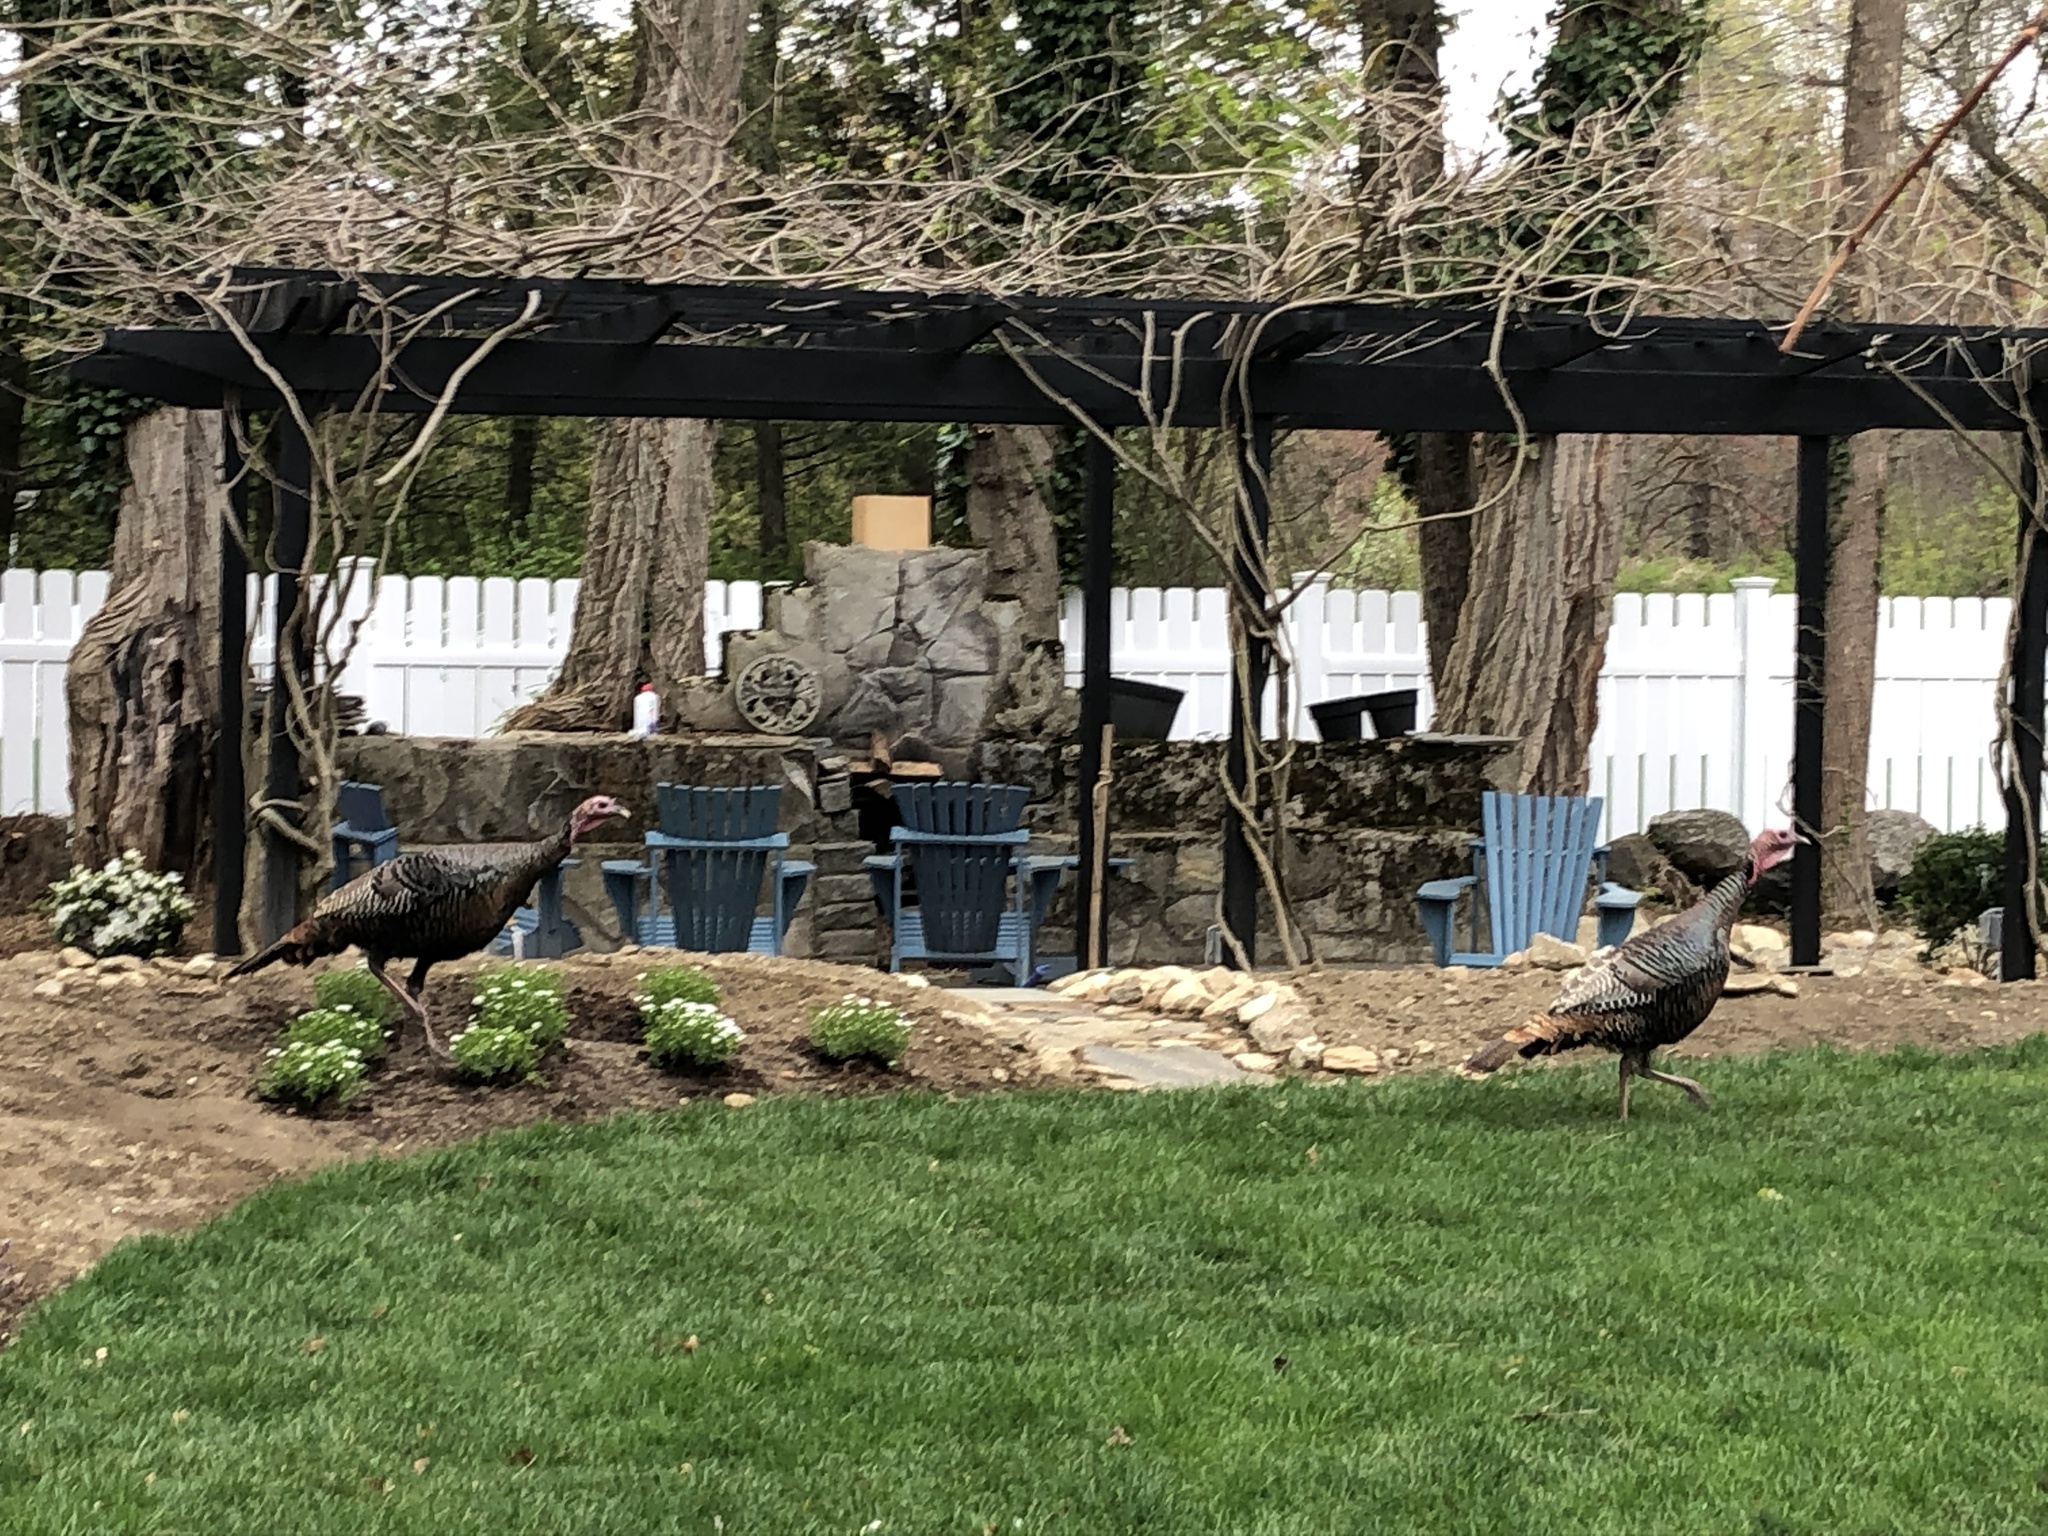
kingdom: Animalia
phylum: Chordata
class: Aves
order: Galliformes
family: Phasianidae
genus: Meleagris
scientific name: Meleagris gallopavo
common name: Wild turkey
